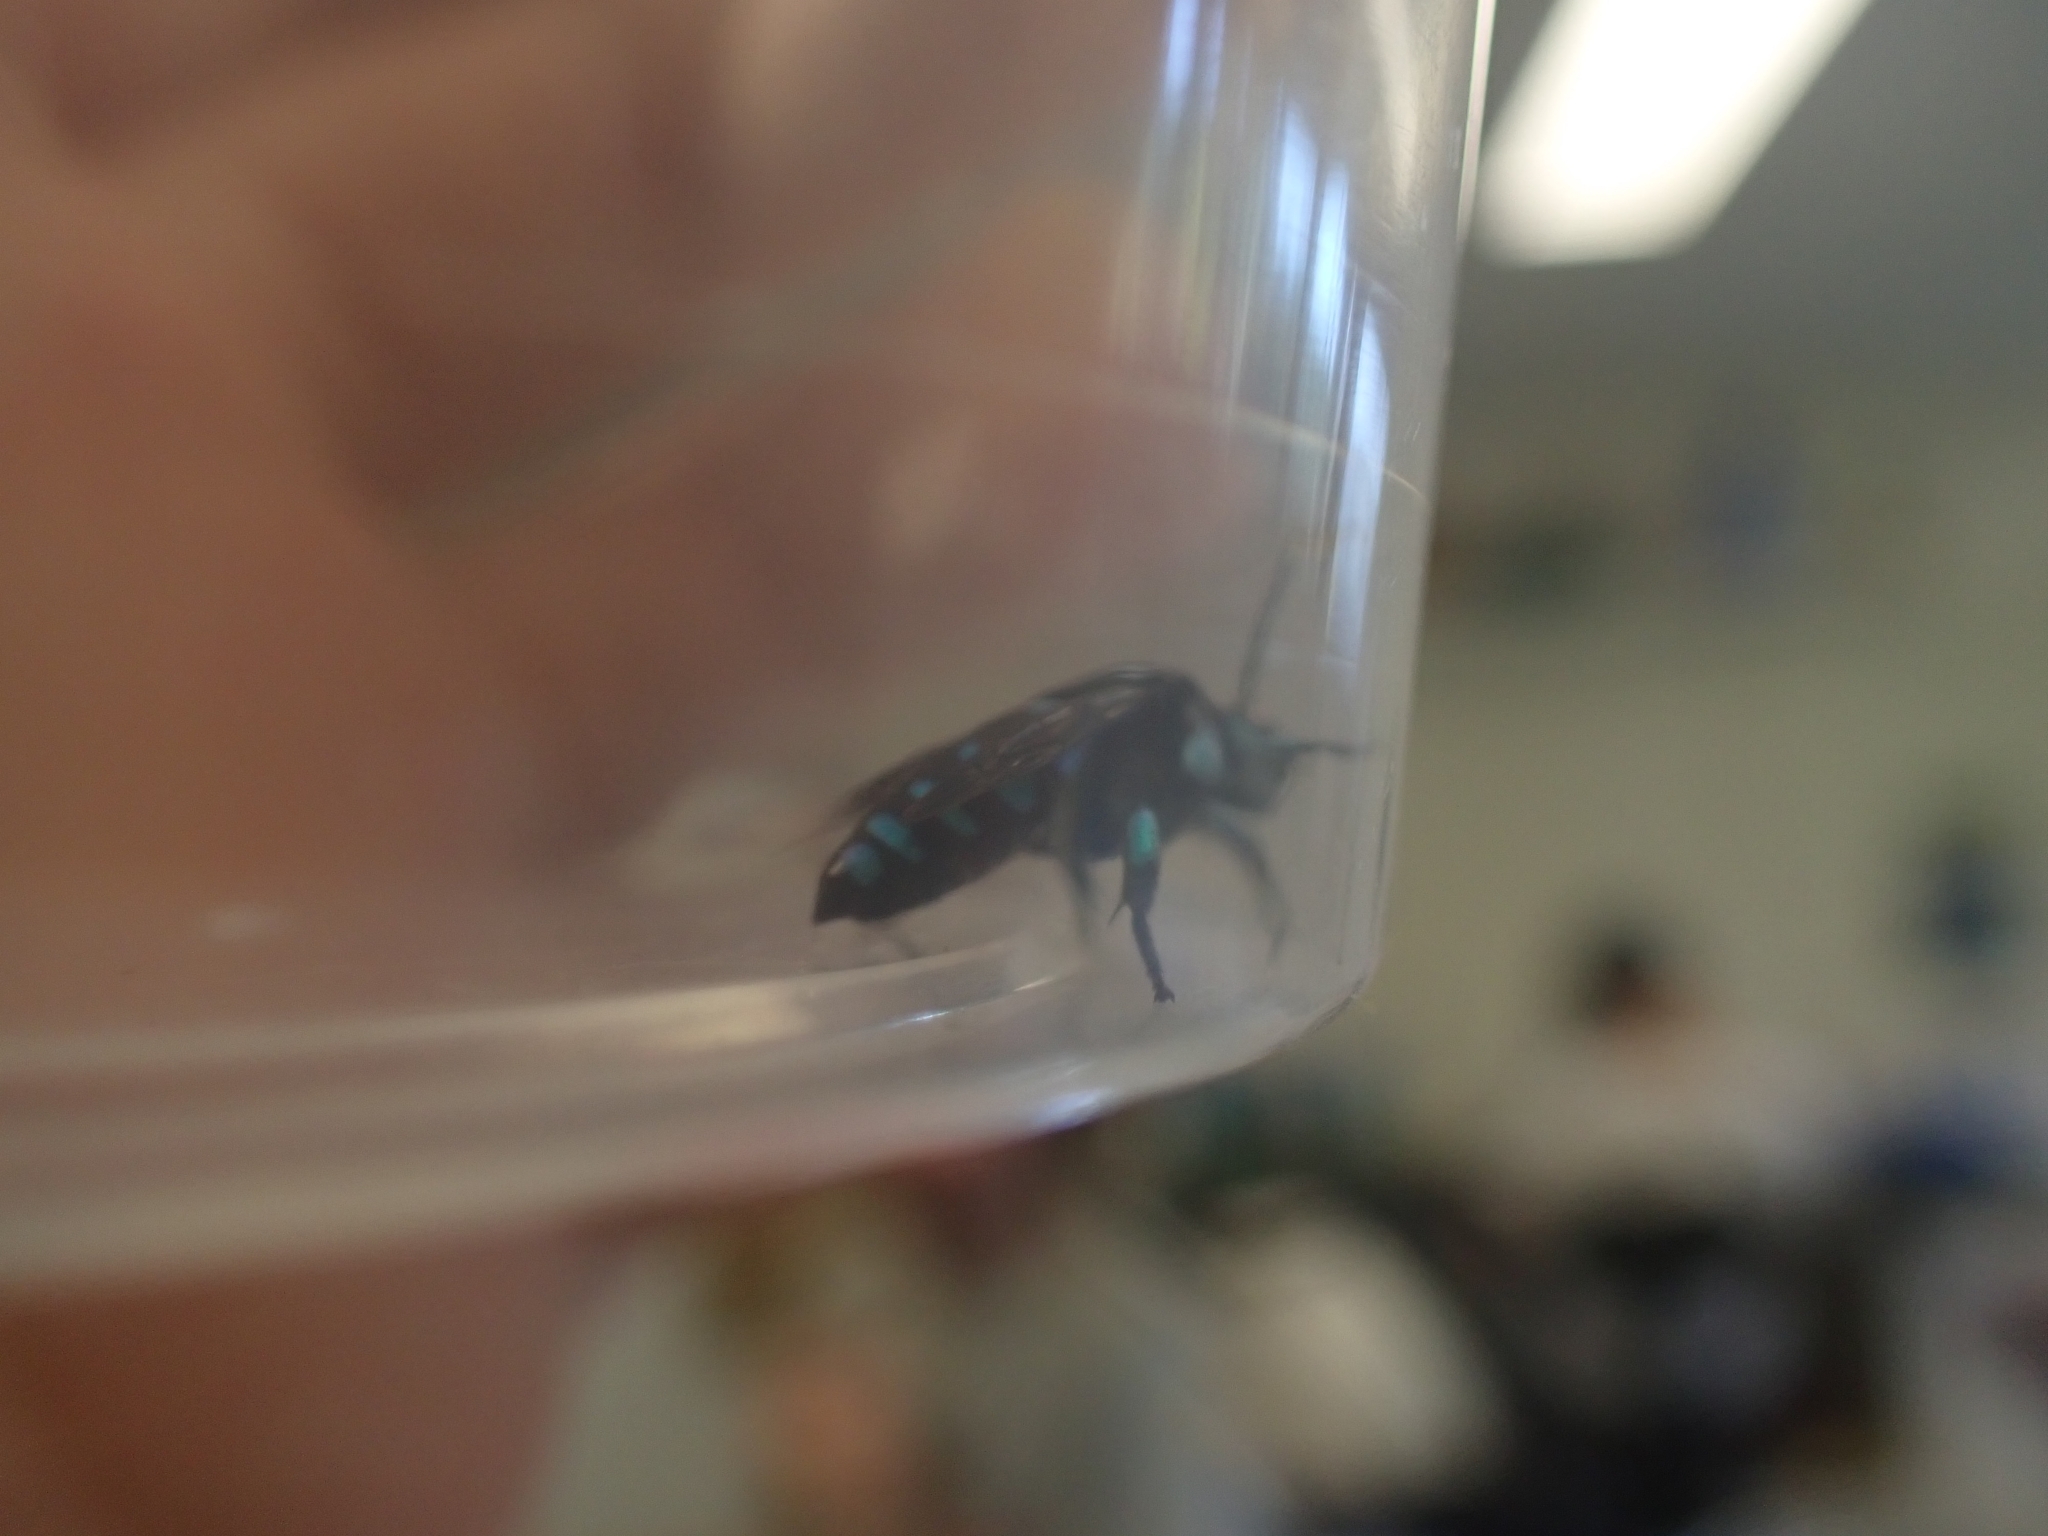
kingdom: Animalia
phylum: Arthropoda
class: Insecta
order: Hymenoptera
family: Apidae
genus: Thyreus
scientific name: Thyreus nitidulus
